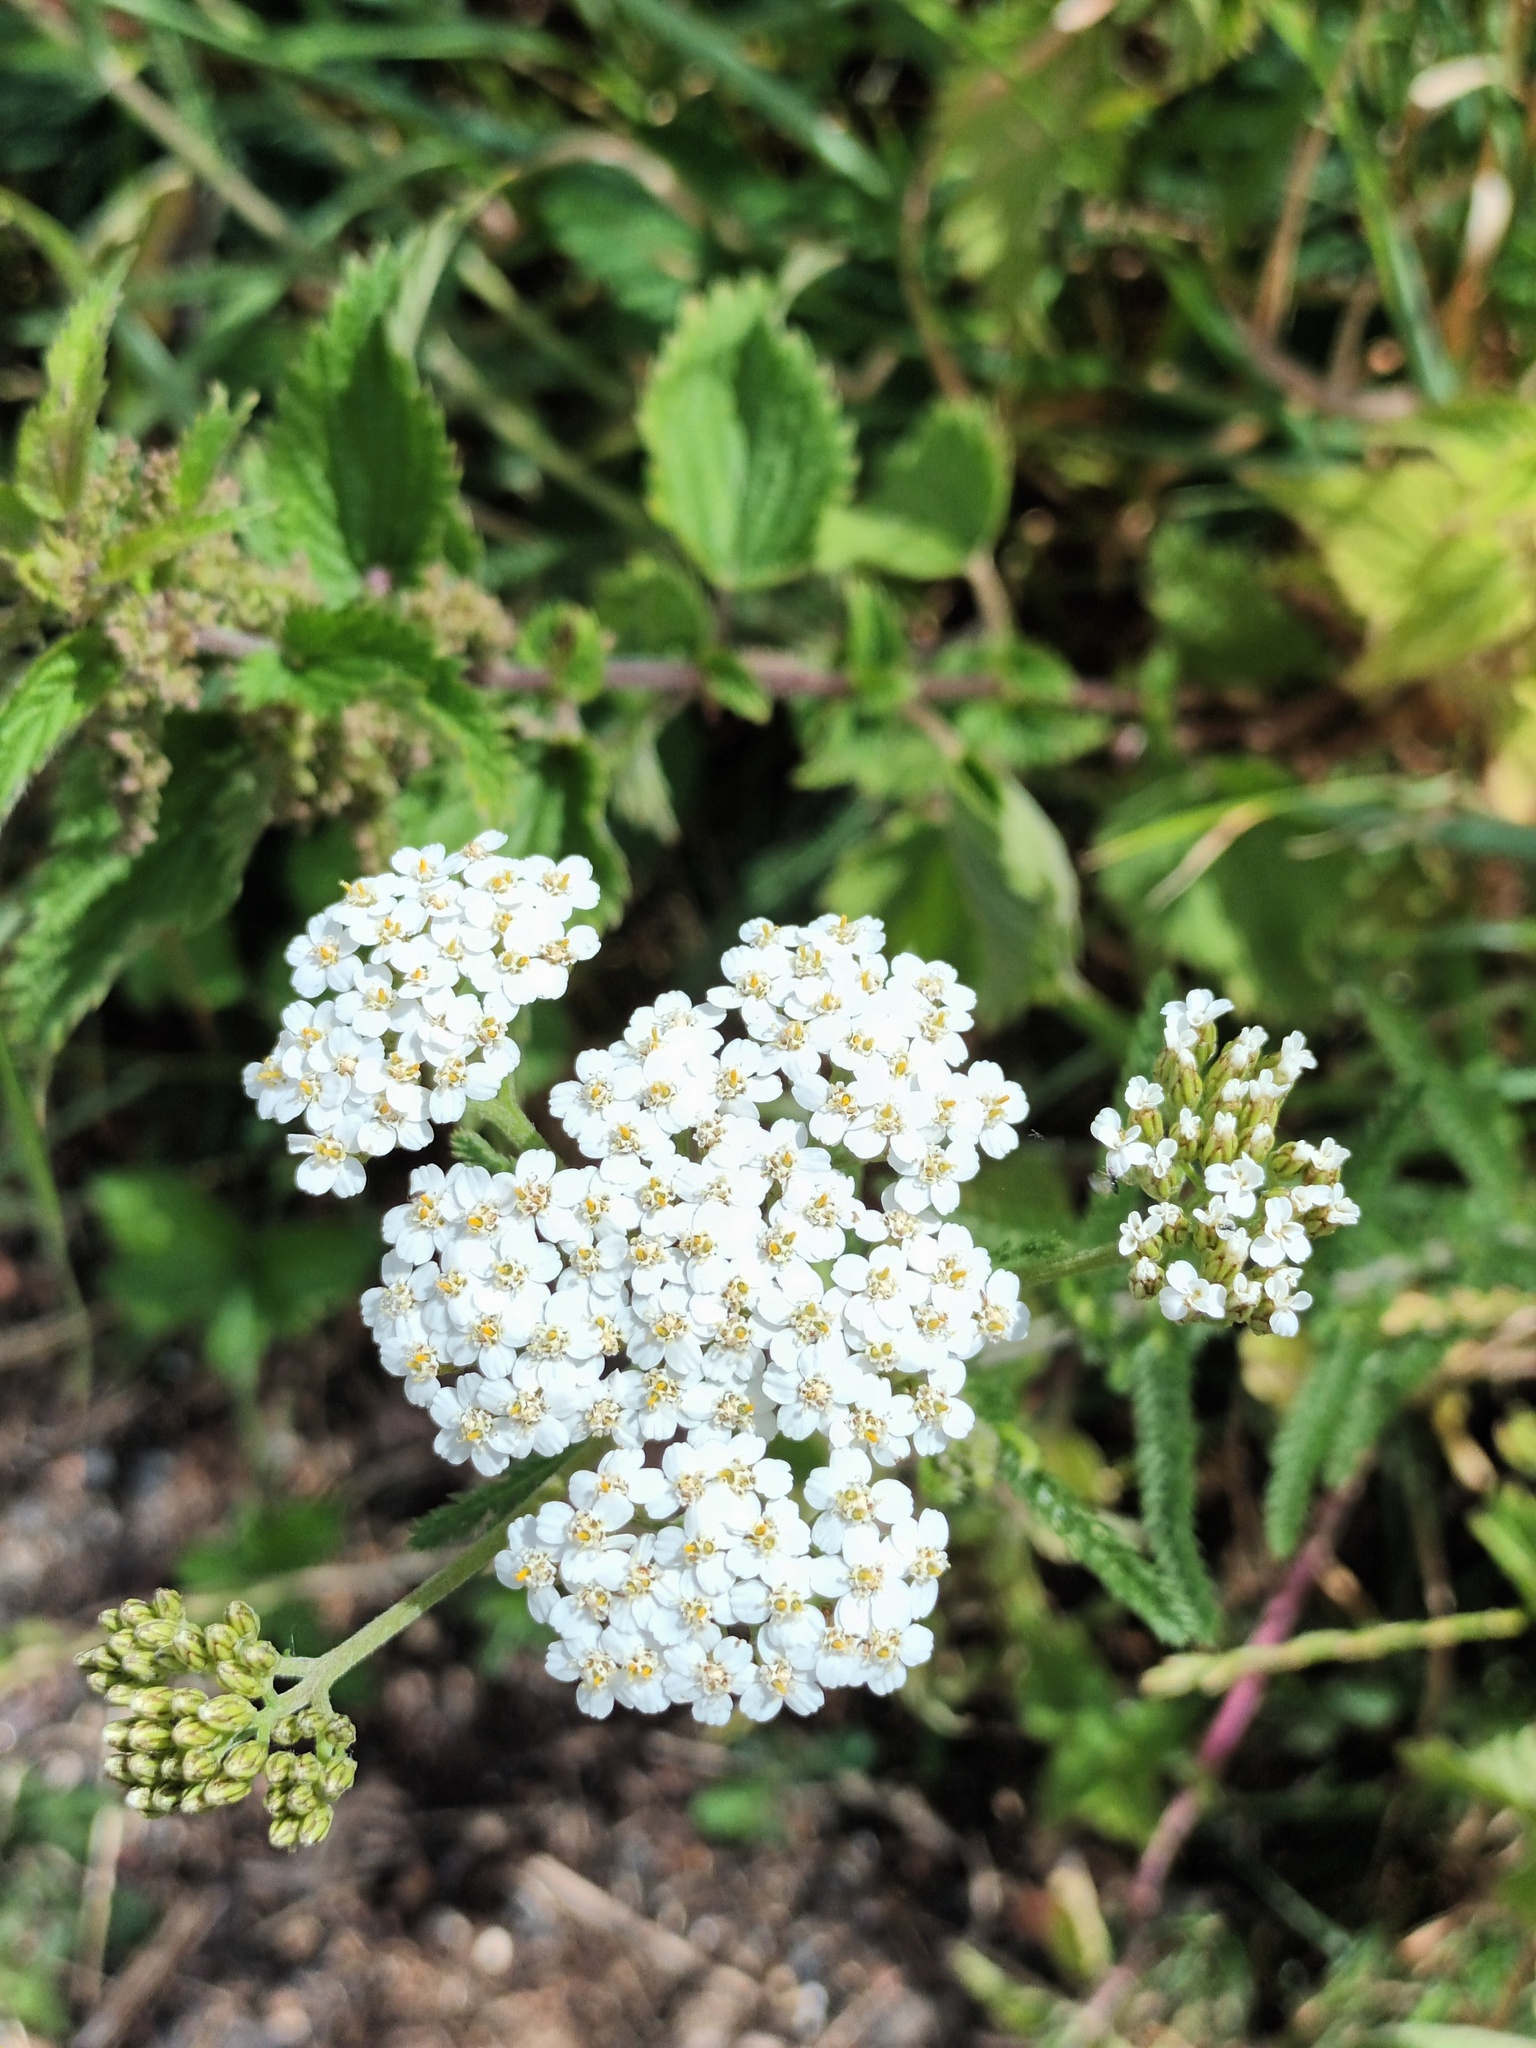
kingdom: Plantae
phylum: Tracheophyta
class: Magnoliopsida
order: Asterales
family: Asteraceae
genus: Achillea
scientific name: Achillea millefolium
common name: Yarrow
